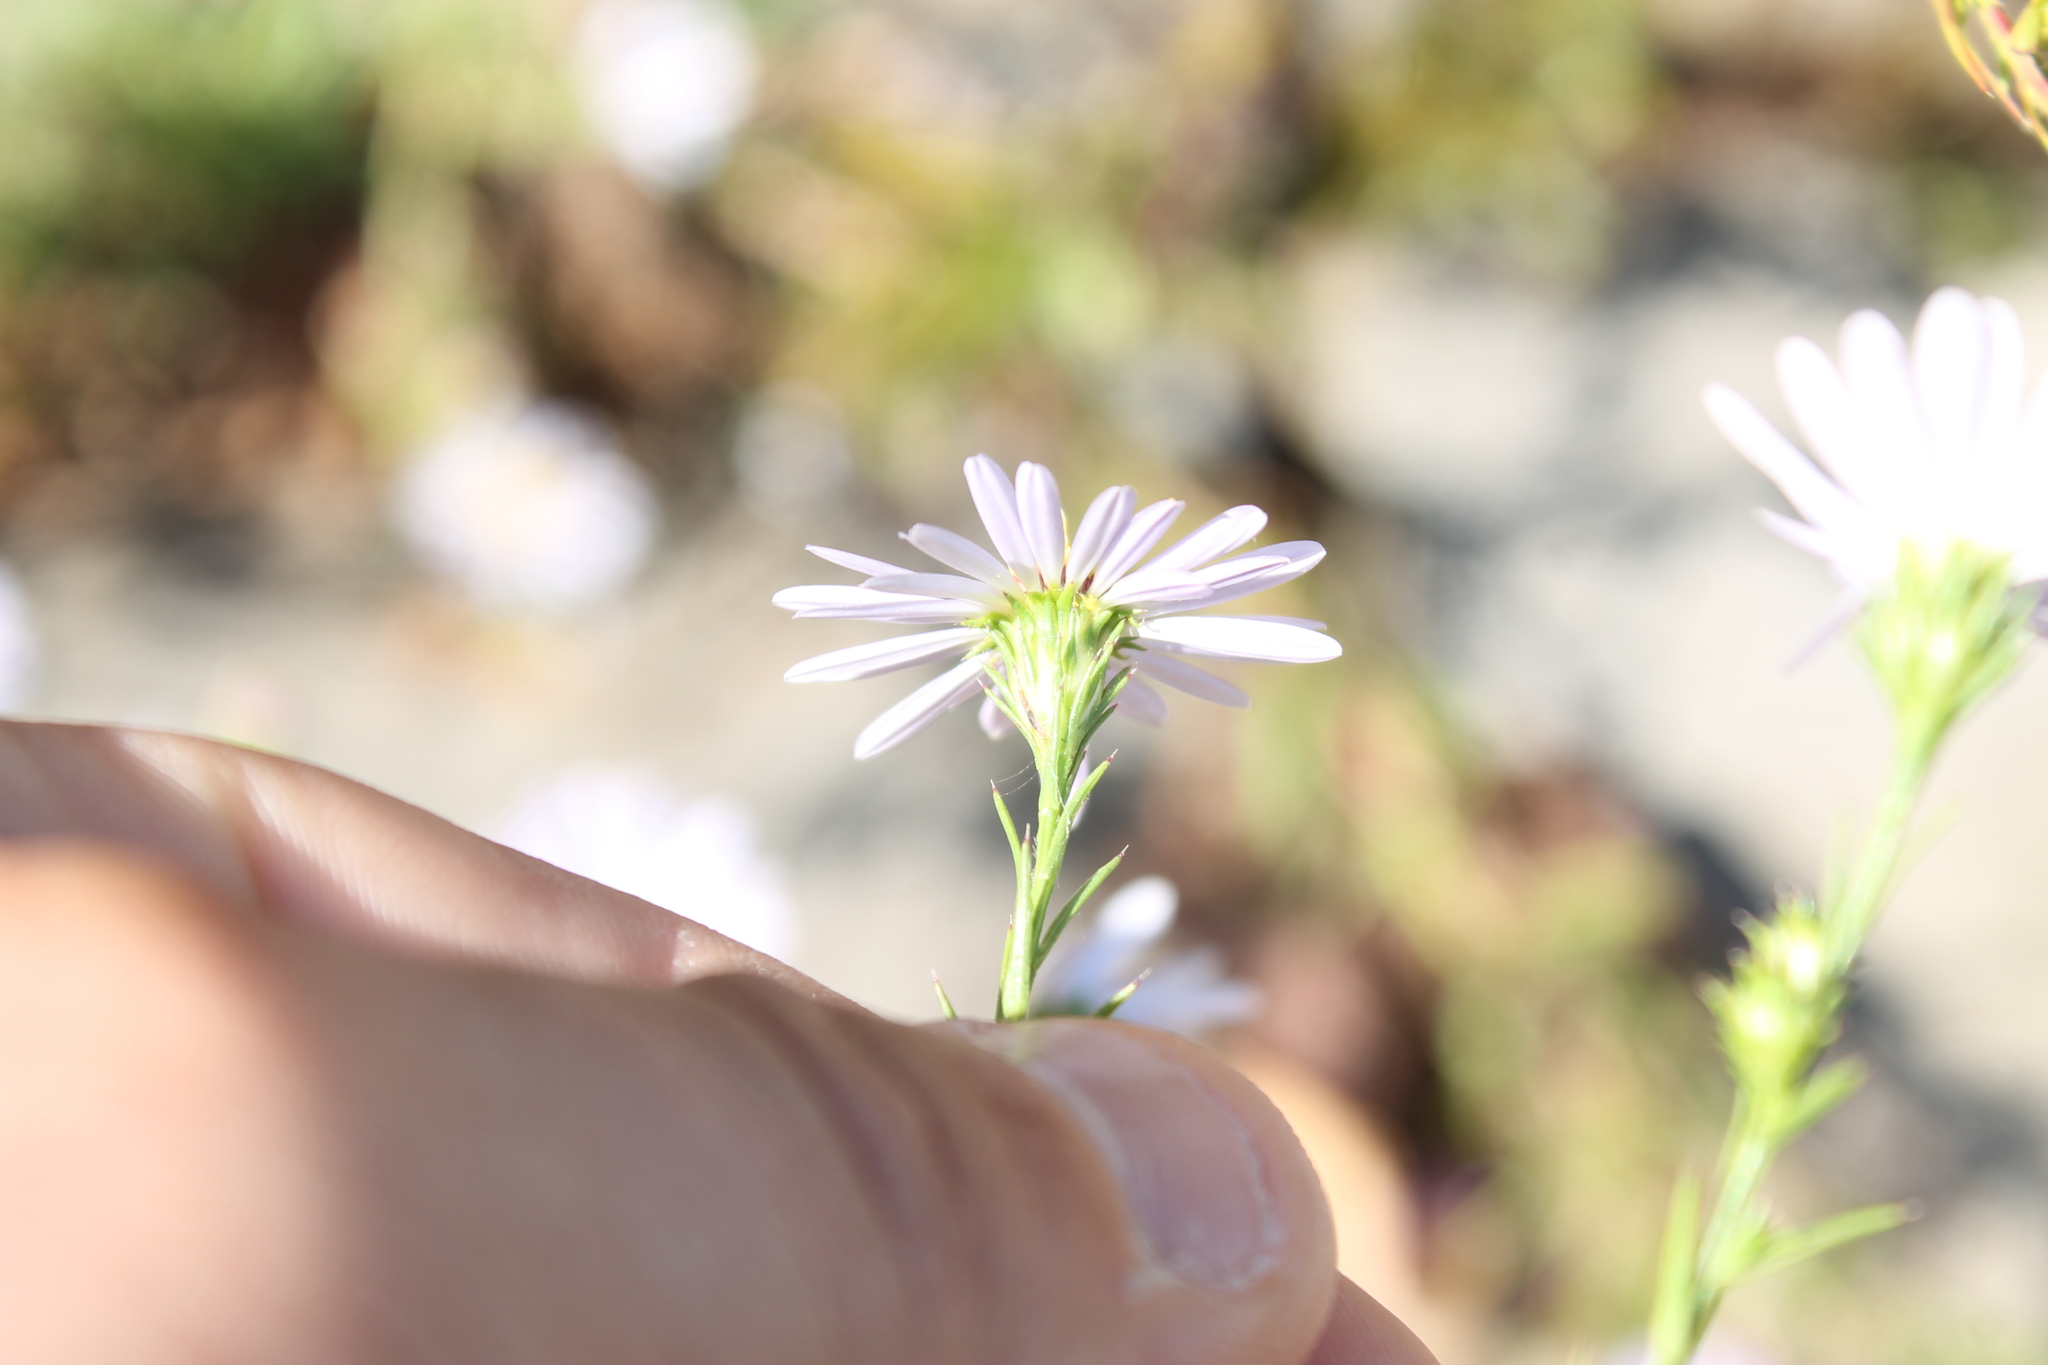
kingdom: Plantae
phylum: Tracheophyta
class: Magnoliopsida
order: Asterales
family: Asteraceae
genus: Symphyotrichum
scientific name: Symphyotrichum kentuckiense
